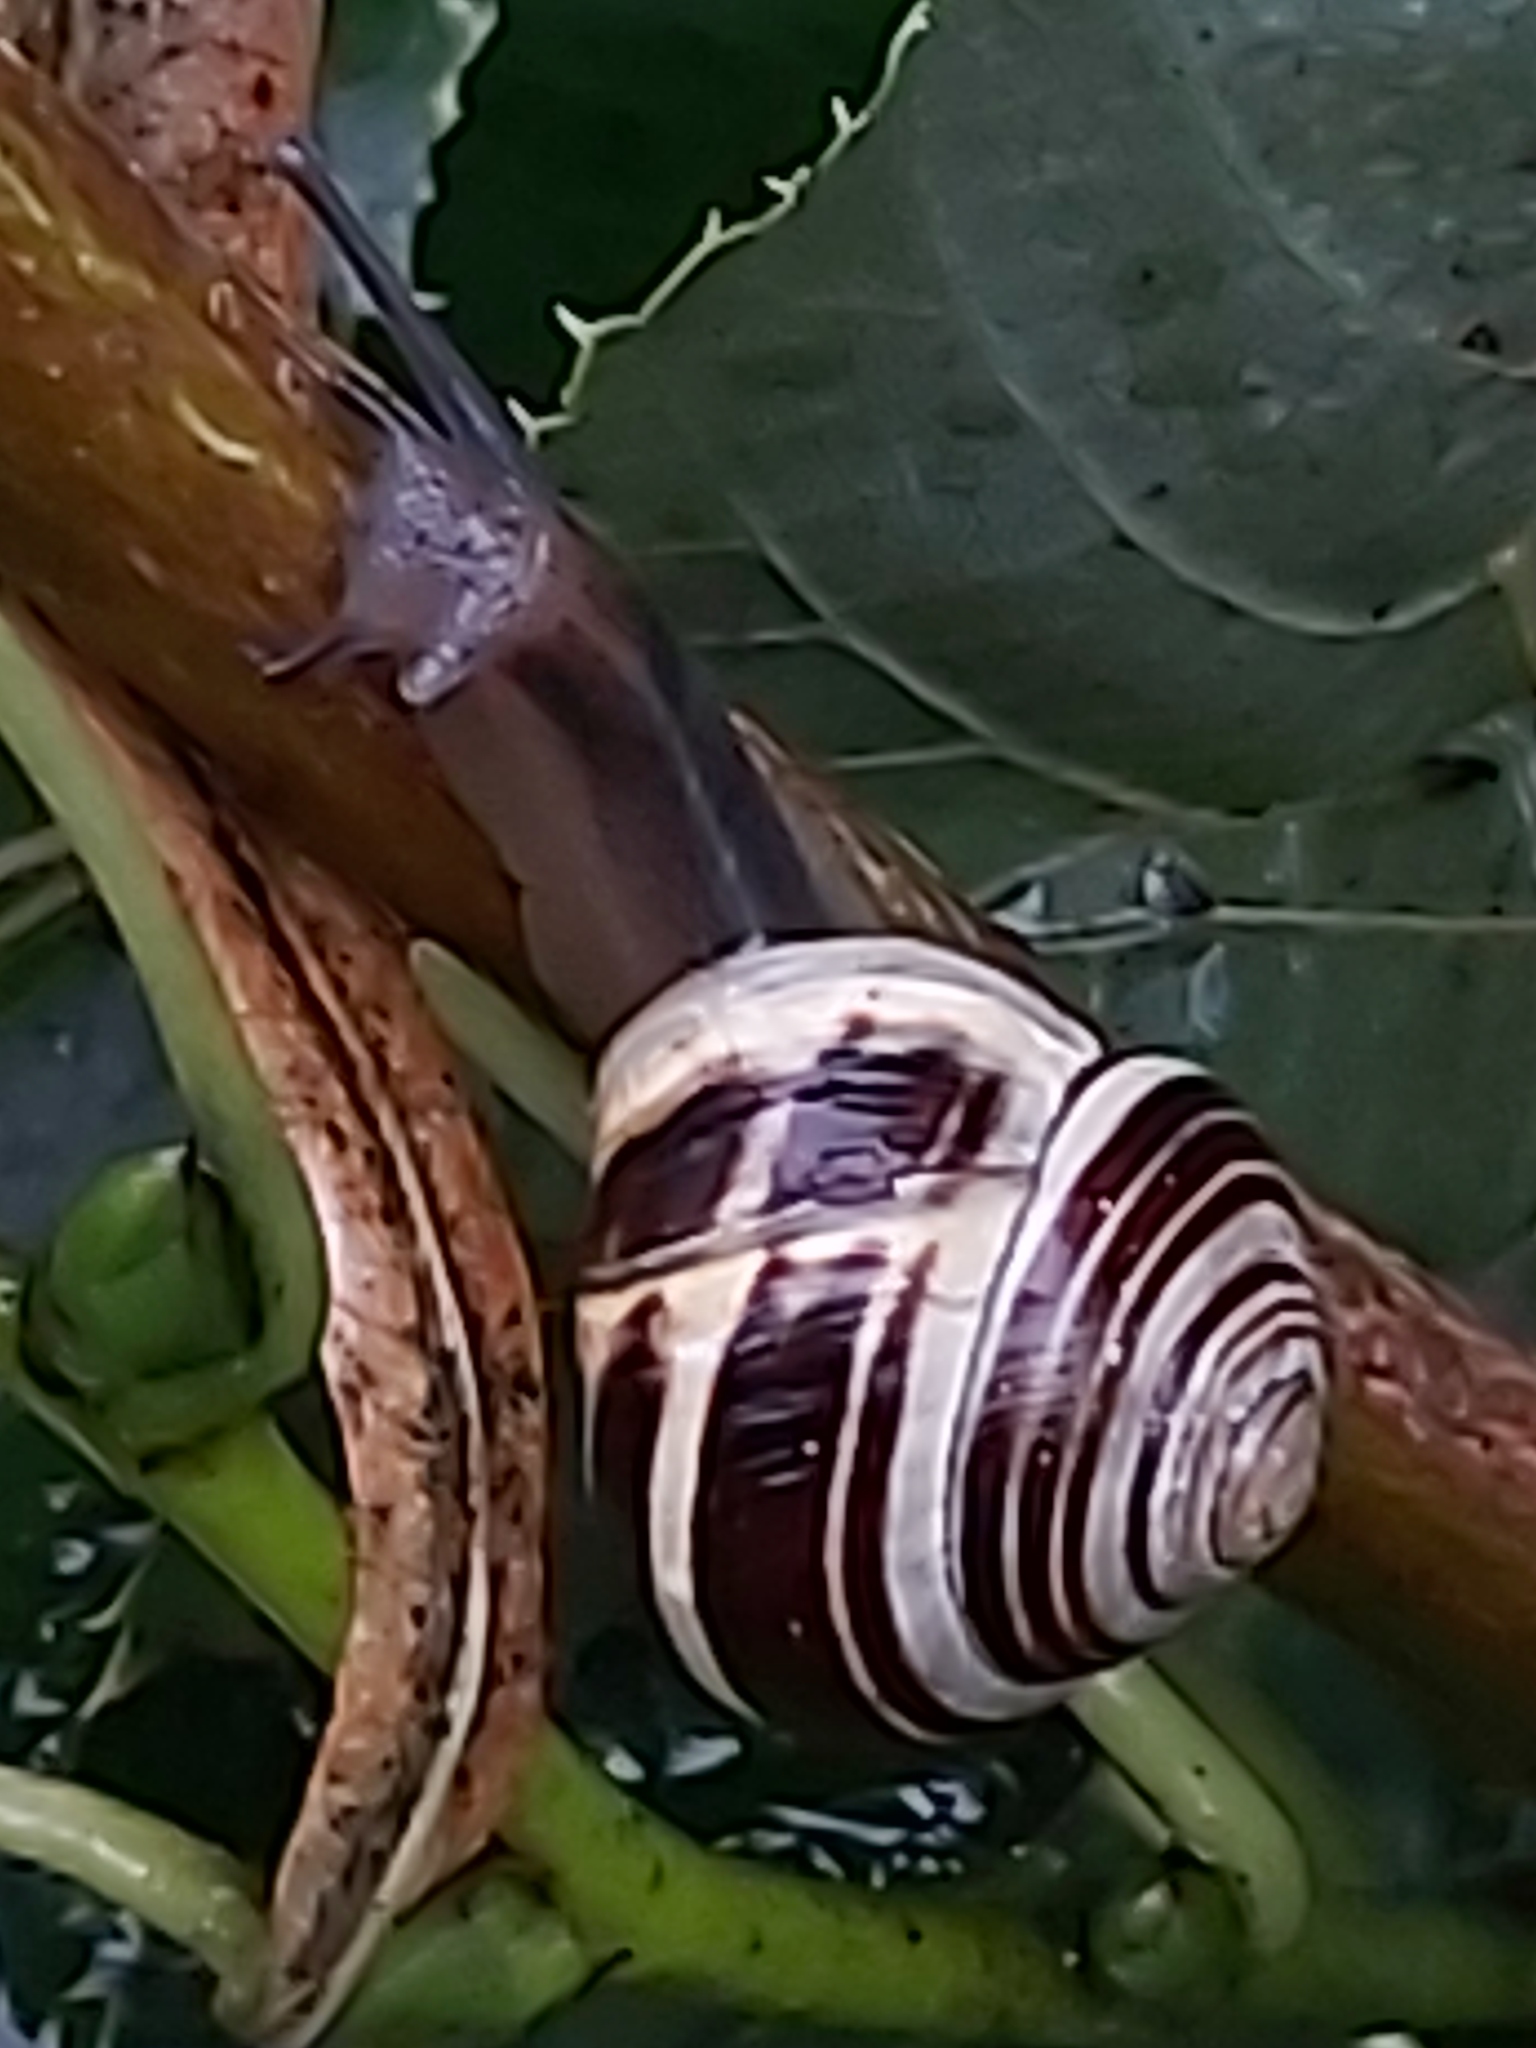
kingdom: Animalia
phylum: Mollusca
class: Gastropoda
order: Stylommatophora
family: Helicidae
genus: Cepaea
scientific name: Cepaea hortensis
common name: White-lip gardensnail
